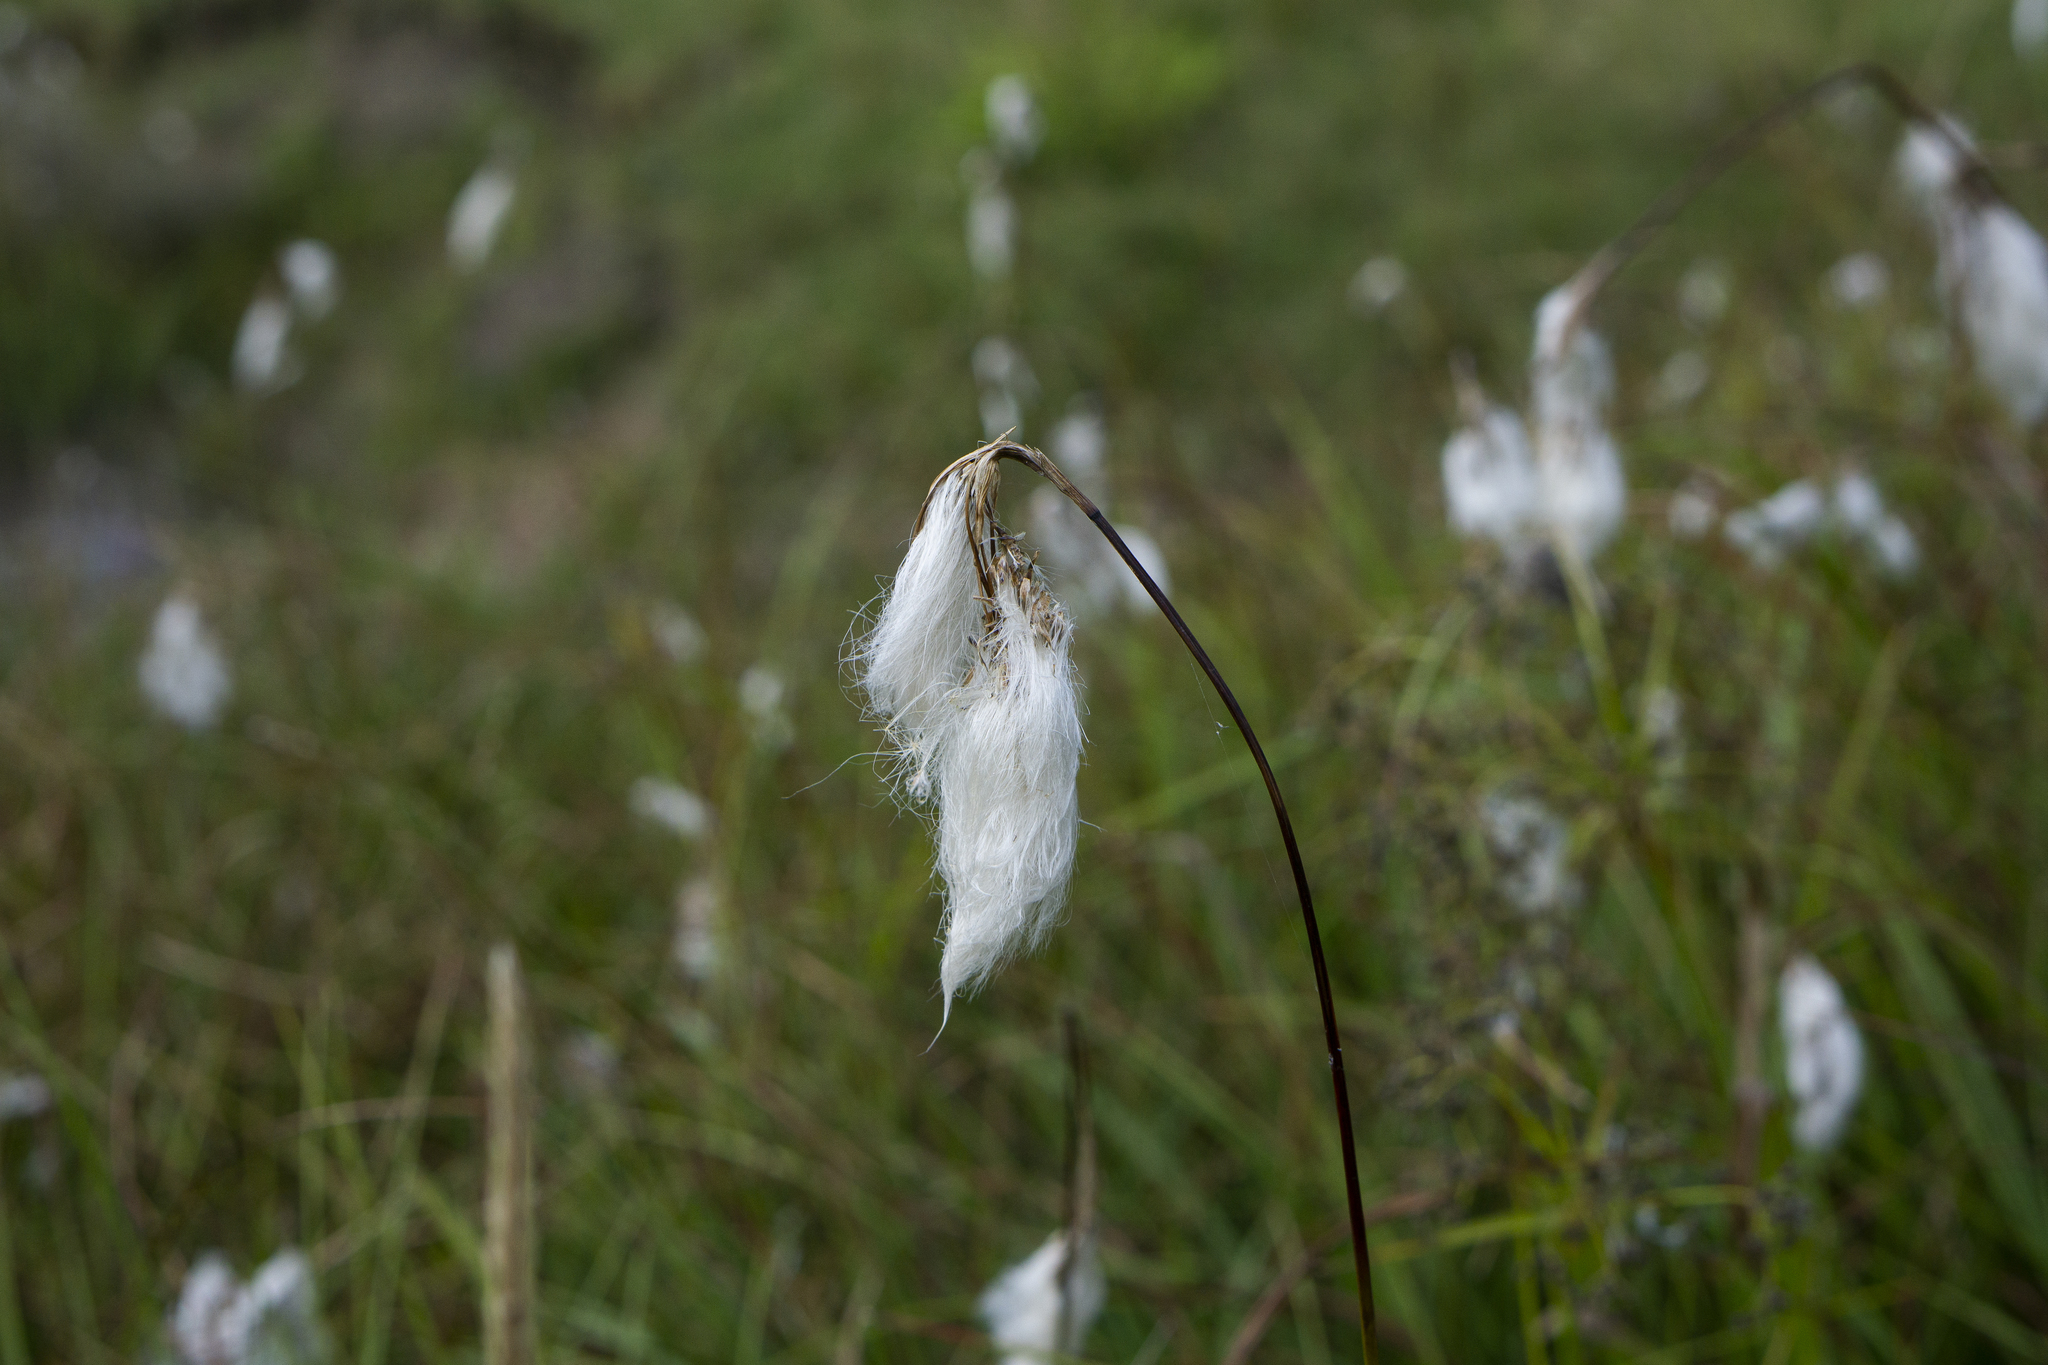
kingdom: Plantae
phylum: Tracheophyta
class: Liliopsida
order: Poales
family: Cyperaceae
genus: Eriophorum
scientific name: Eriophorum angustifolium
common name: Common cottongrass
